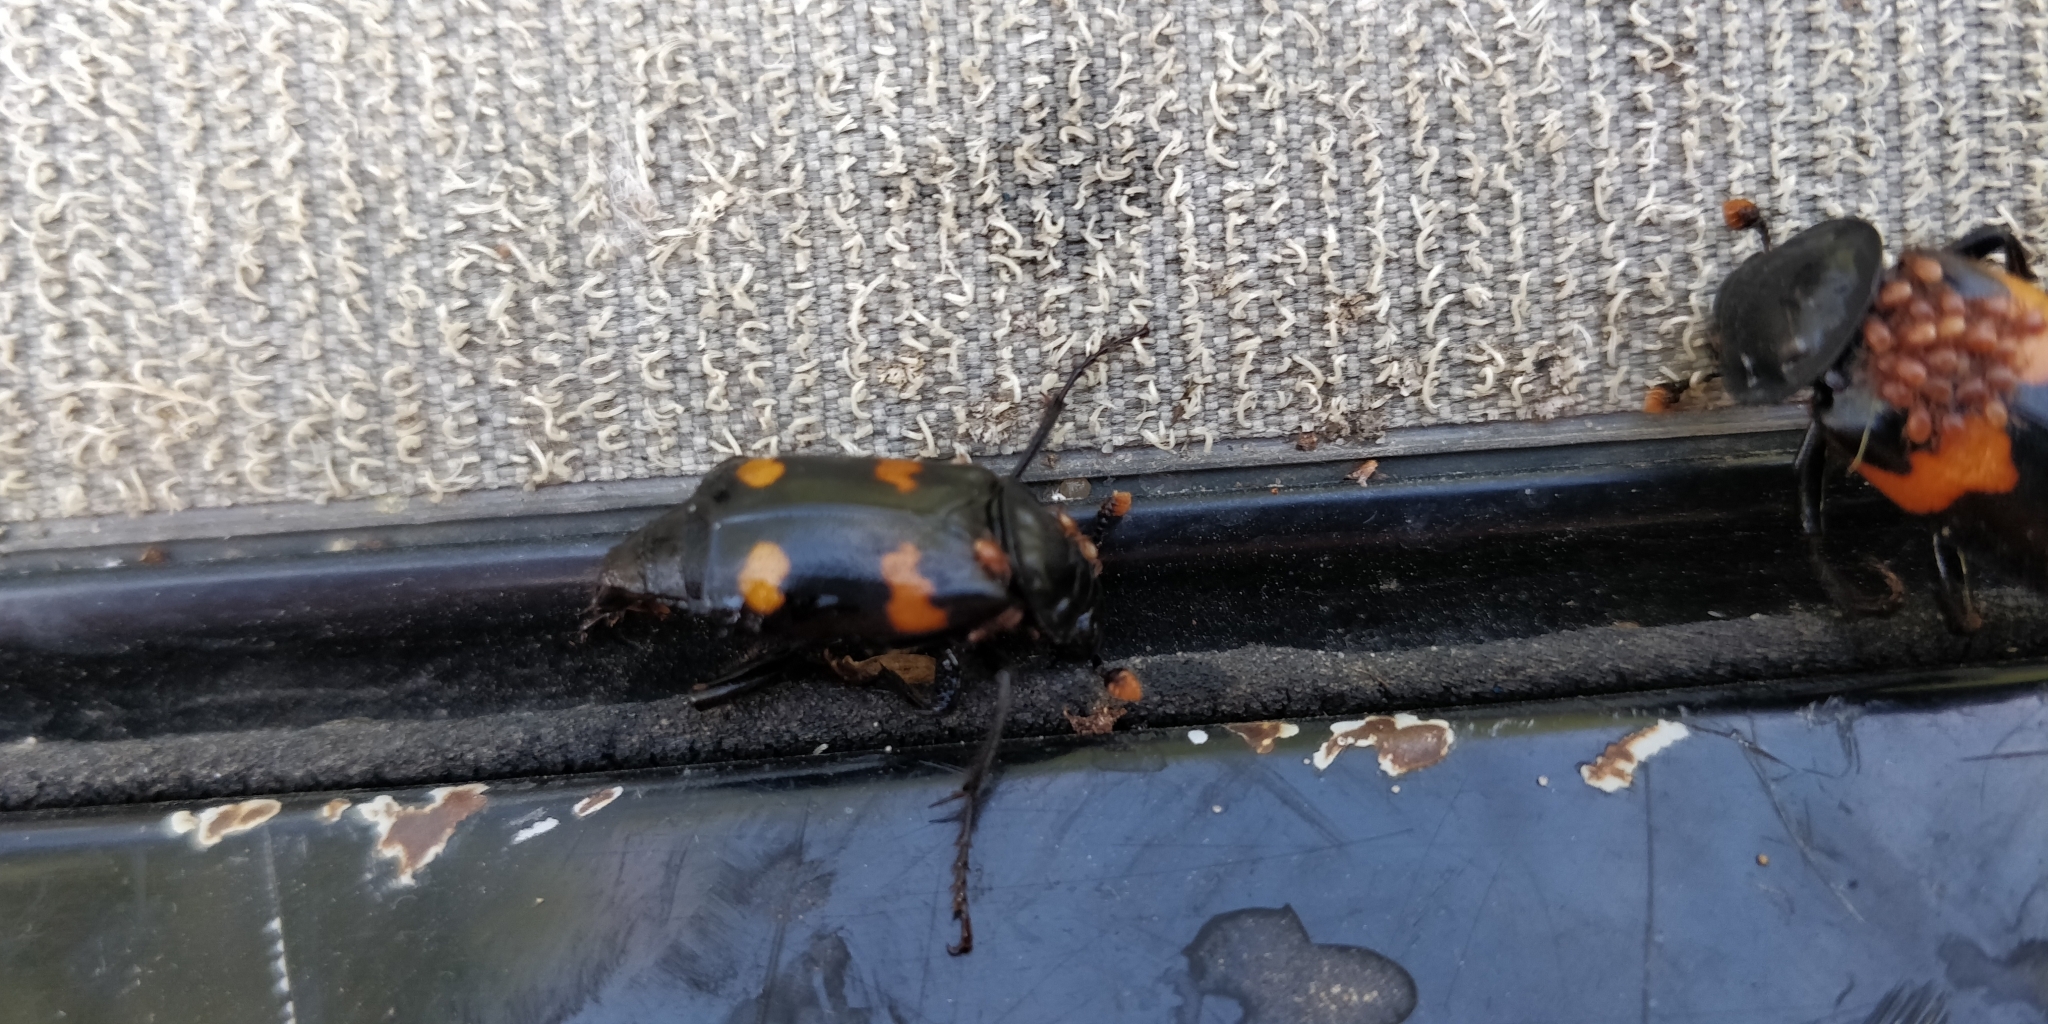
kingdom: Animalia
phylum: Arthropoda
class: Insecta
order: Coleoptera
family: Staphylinidae
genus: Nicrophorus
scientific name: Nicrophorus orbicollis
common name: Roundneck sexton beetle
